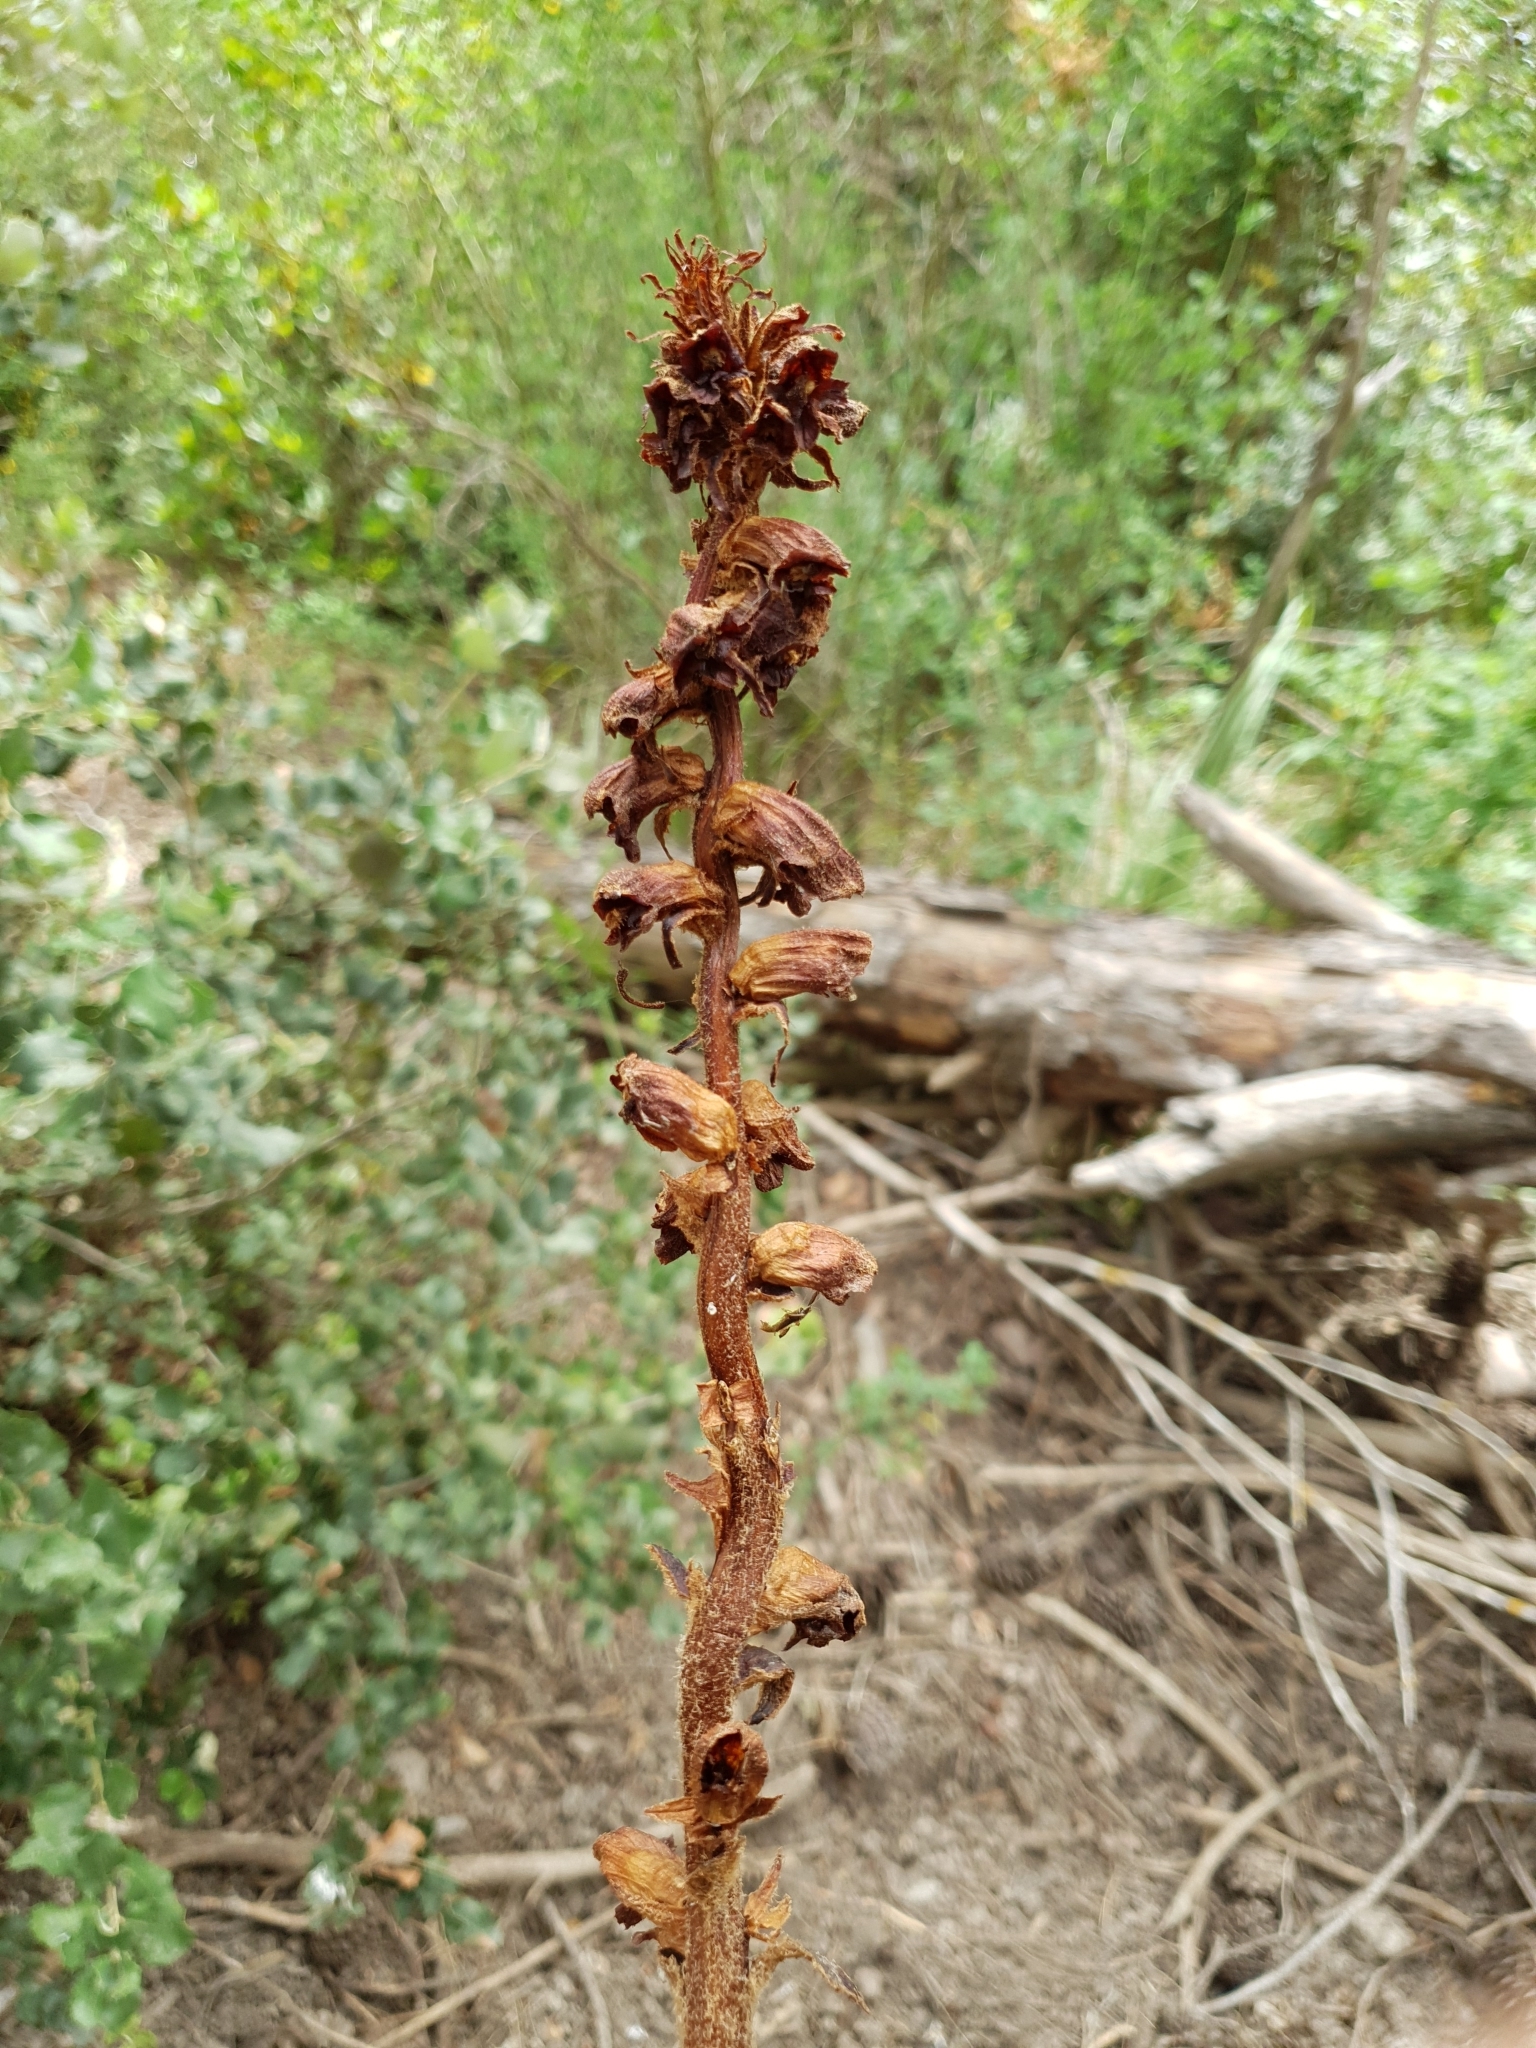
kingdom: Plantae
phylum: Tracheophyta
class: Magnoliopsida
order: Lamiales
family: Orobanchaceae
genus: Orobanche
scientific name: Orobanche variegata
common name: Variegated broomrape
